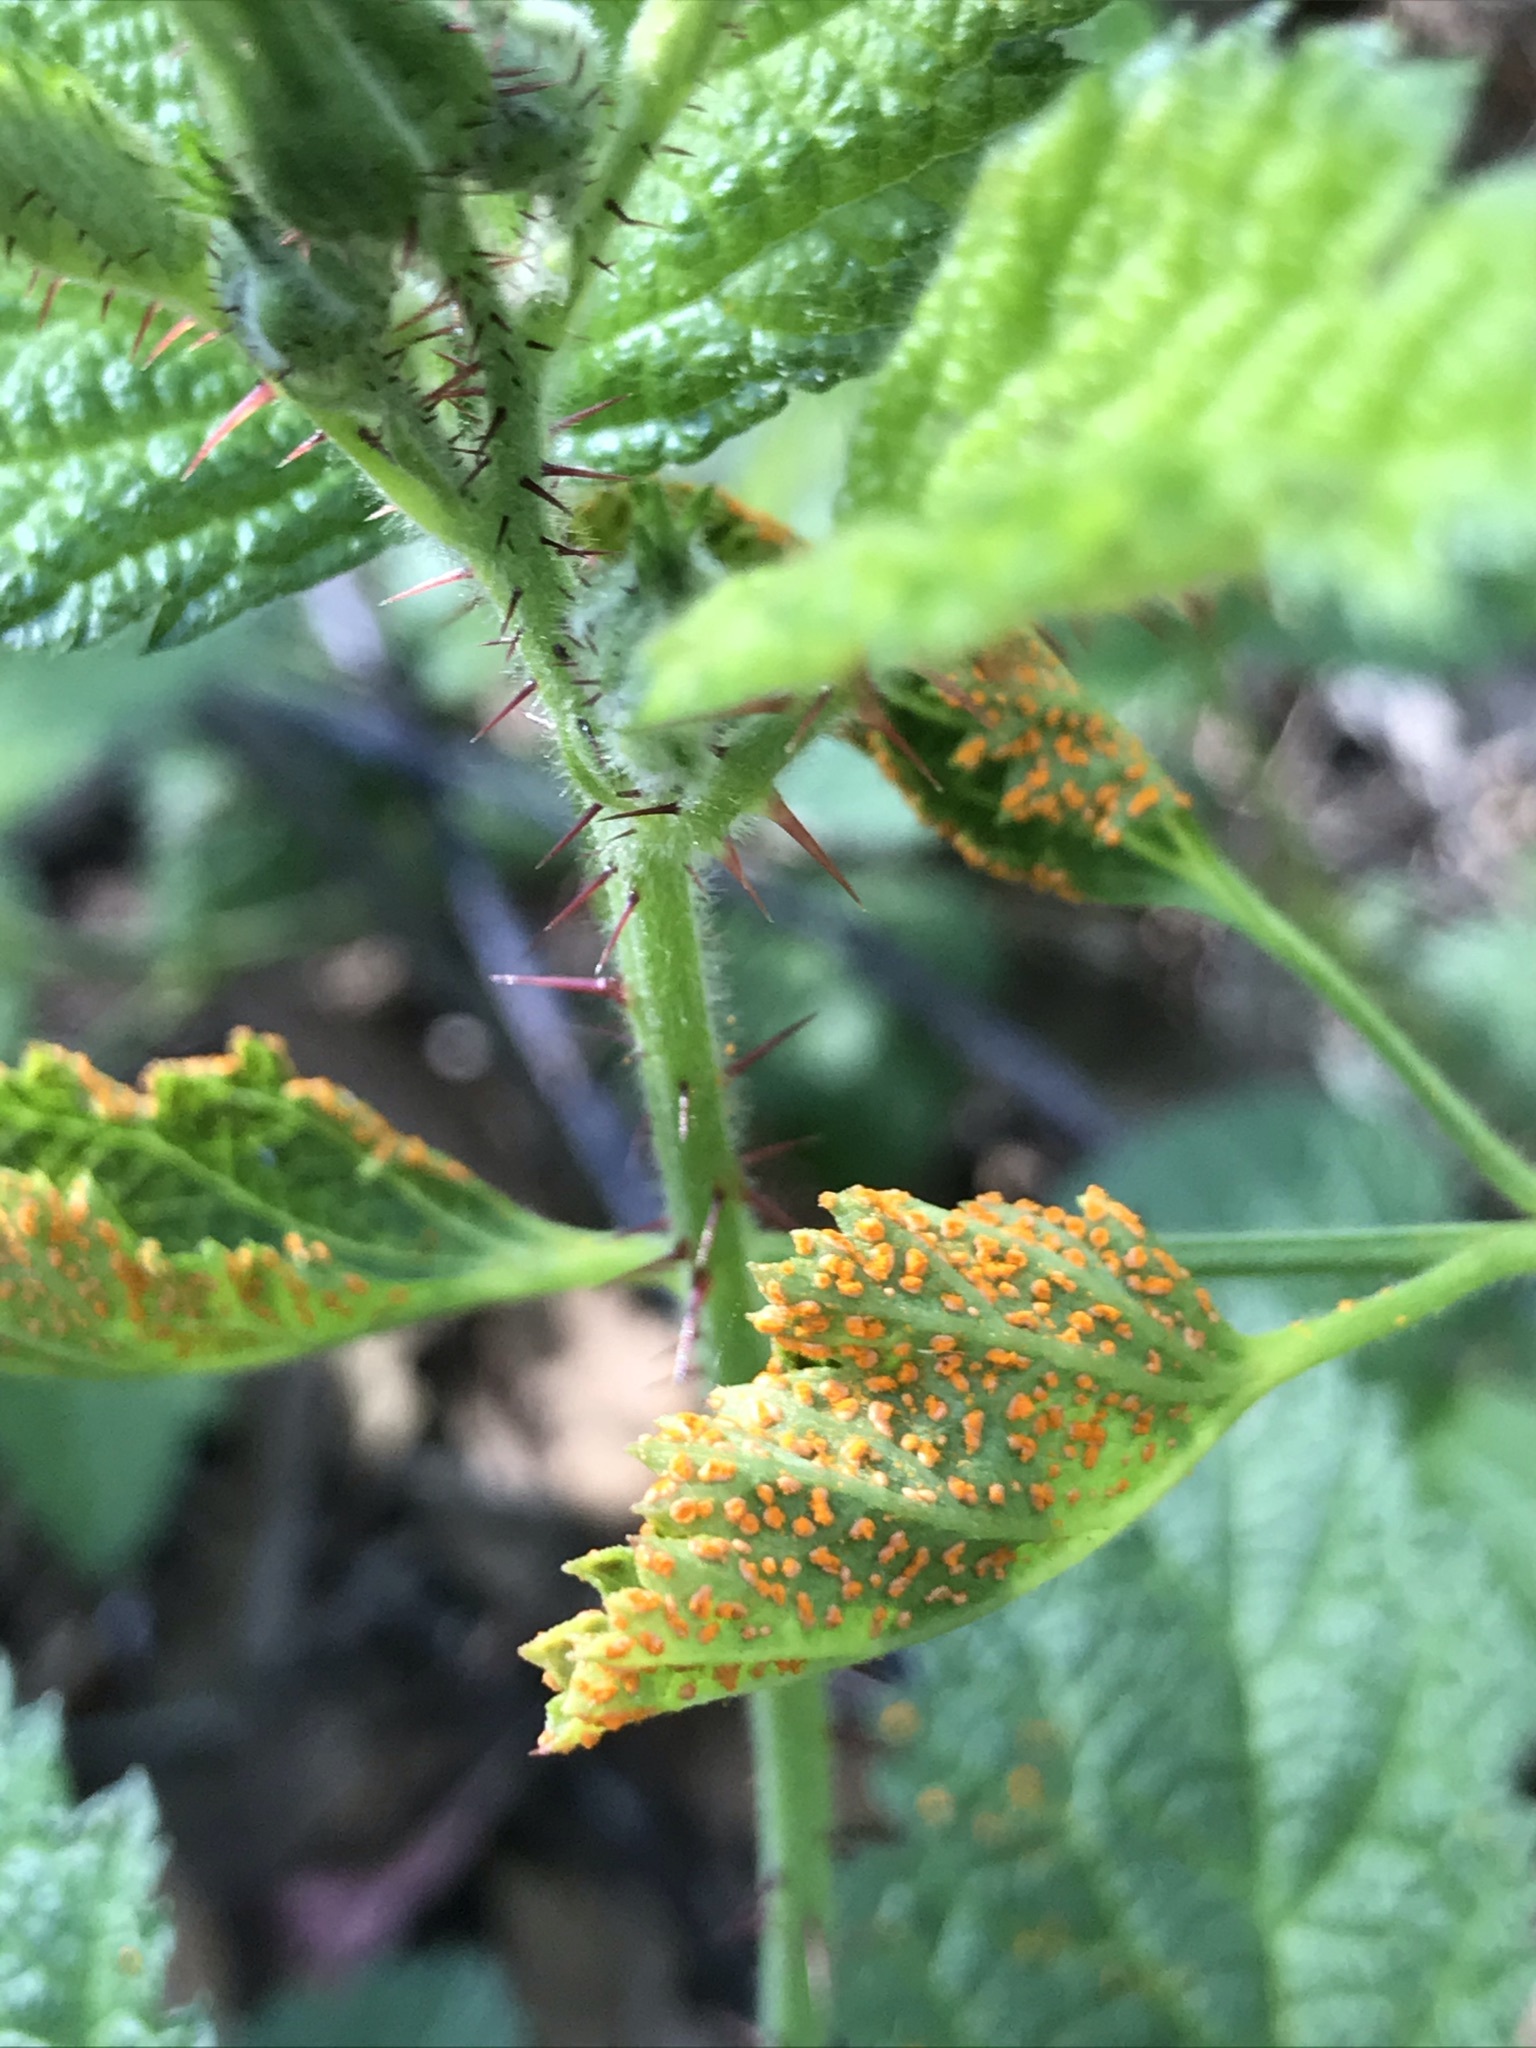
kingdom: Fungi
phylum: Basidiomycota
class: Pucciniomycetes
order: Pucciniales
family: Phragmidiaceae
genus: Arthuriomyces
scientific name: Arthuriomyces peckianus
